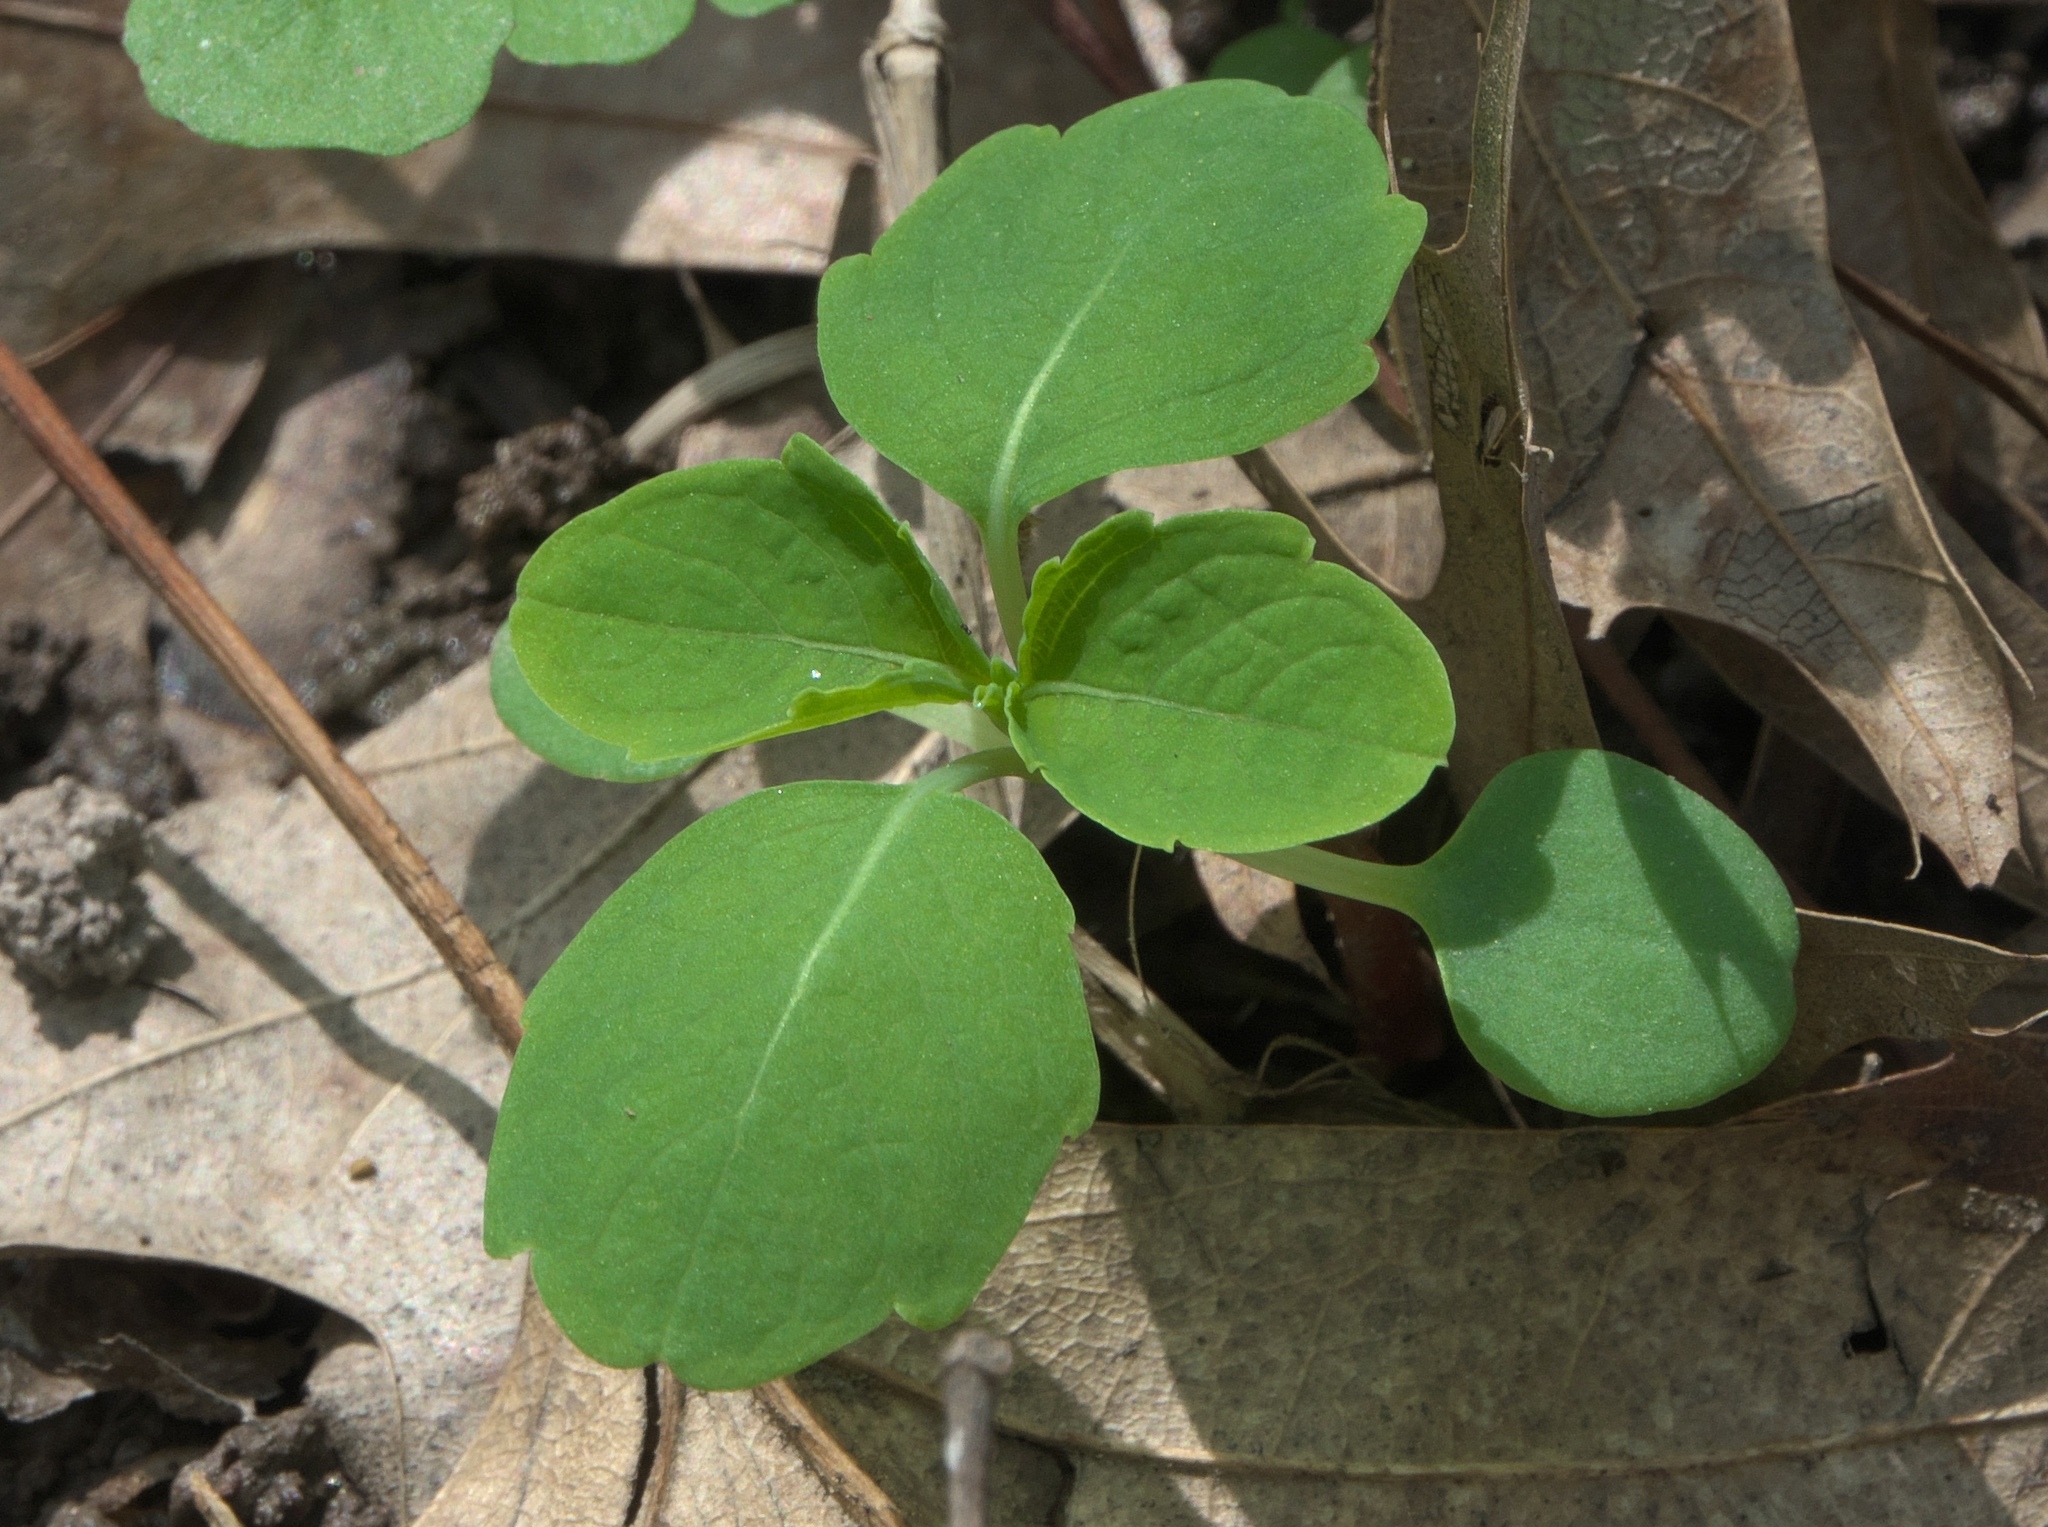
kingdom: Plantae
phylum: Tracheophyta
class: Magnoliopsida
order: Ericales
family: Balsaminaceae
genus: Impatiens
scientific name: Impatiens capensis
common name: Orange balsam
